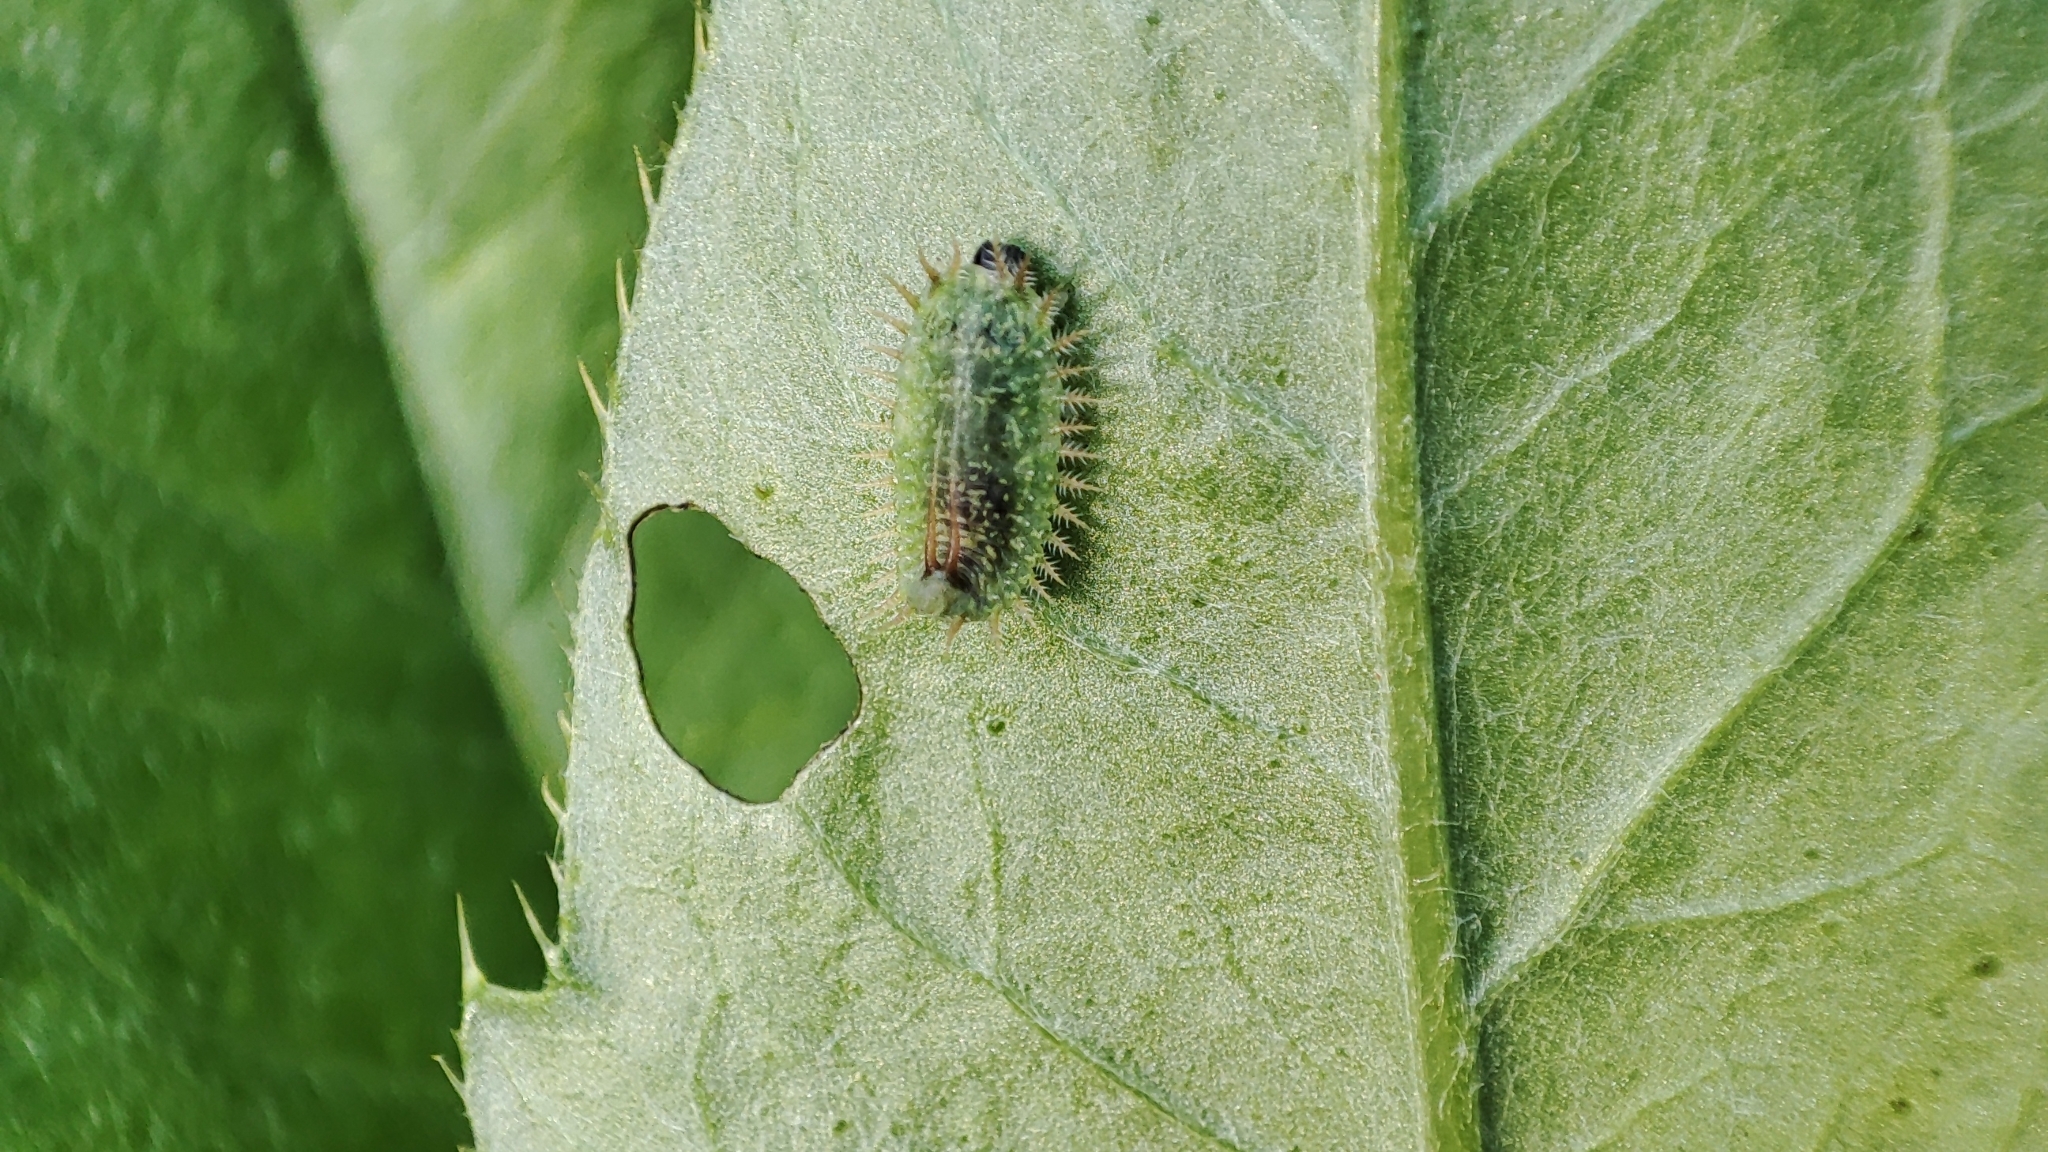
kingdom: Animalia
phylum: Arthropoda
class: Insecta
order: Coleoptera
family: Chrysomelidae
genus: Cassida
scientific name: Cassida vibex
